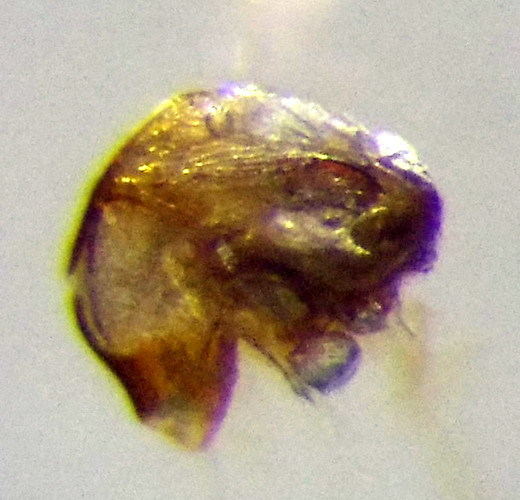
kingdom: Animalia
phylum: Arthropoda
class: Insecta
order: Hemiptera
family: Nabidae
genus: Nabis
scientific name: Nabis ferus
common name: Field damsel bug
